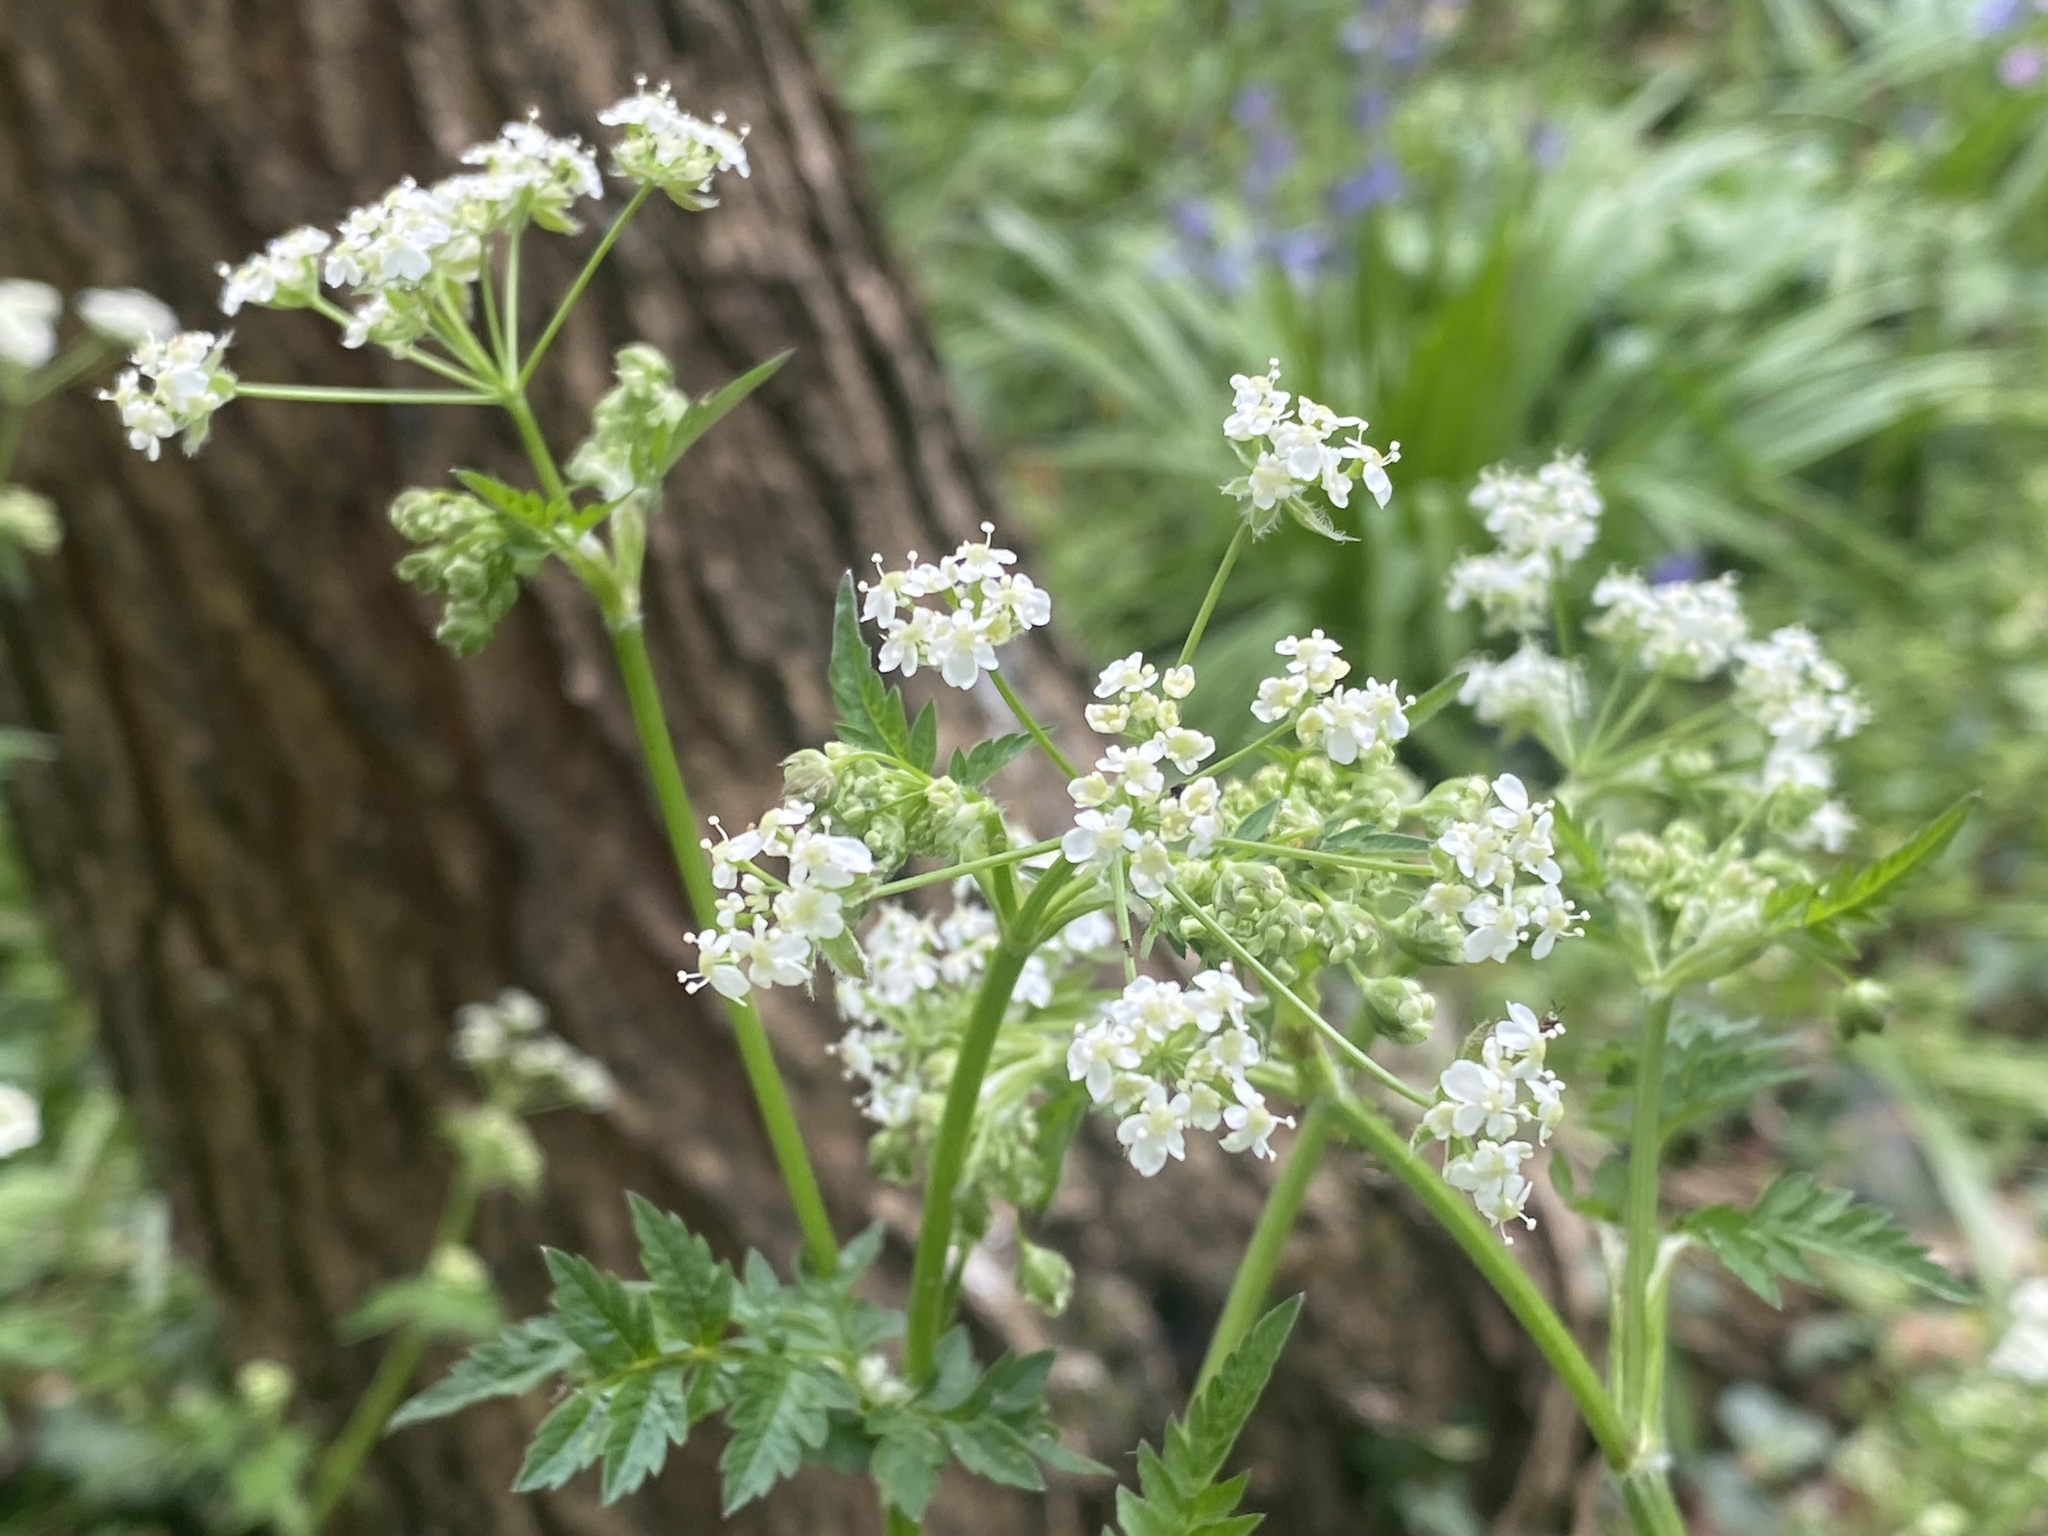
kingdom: Plantae
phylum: Tracheophyta
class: Magnoliopsida
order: Apiales
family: Apiaceae
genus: Anthriscus
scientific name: Anthriscus sylvestris
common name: Cow parsley
